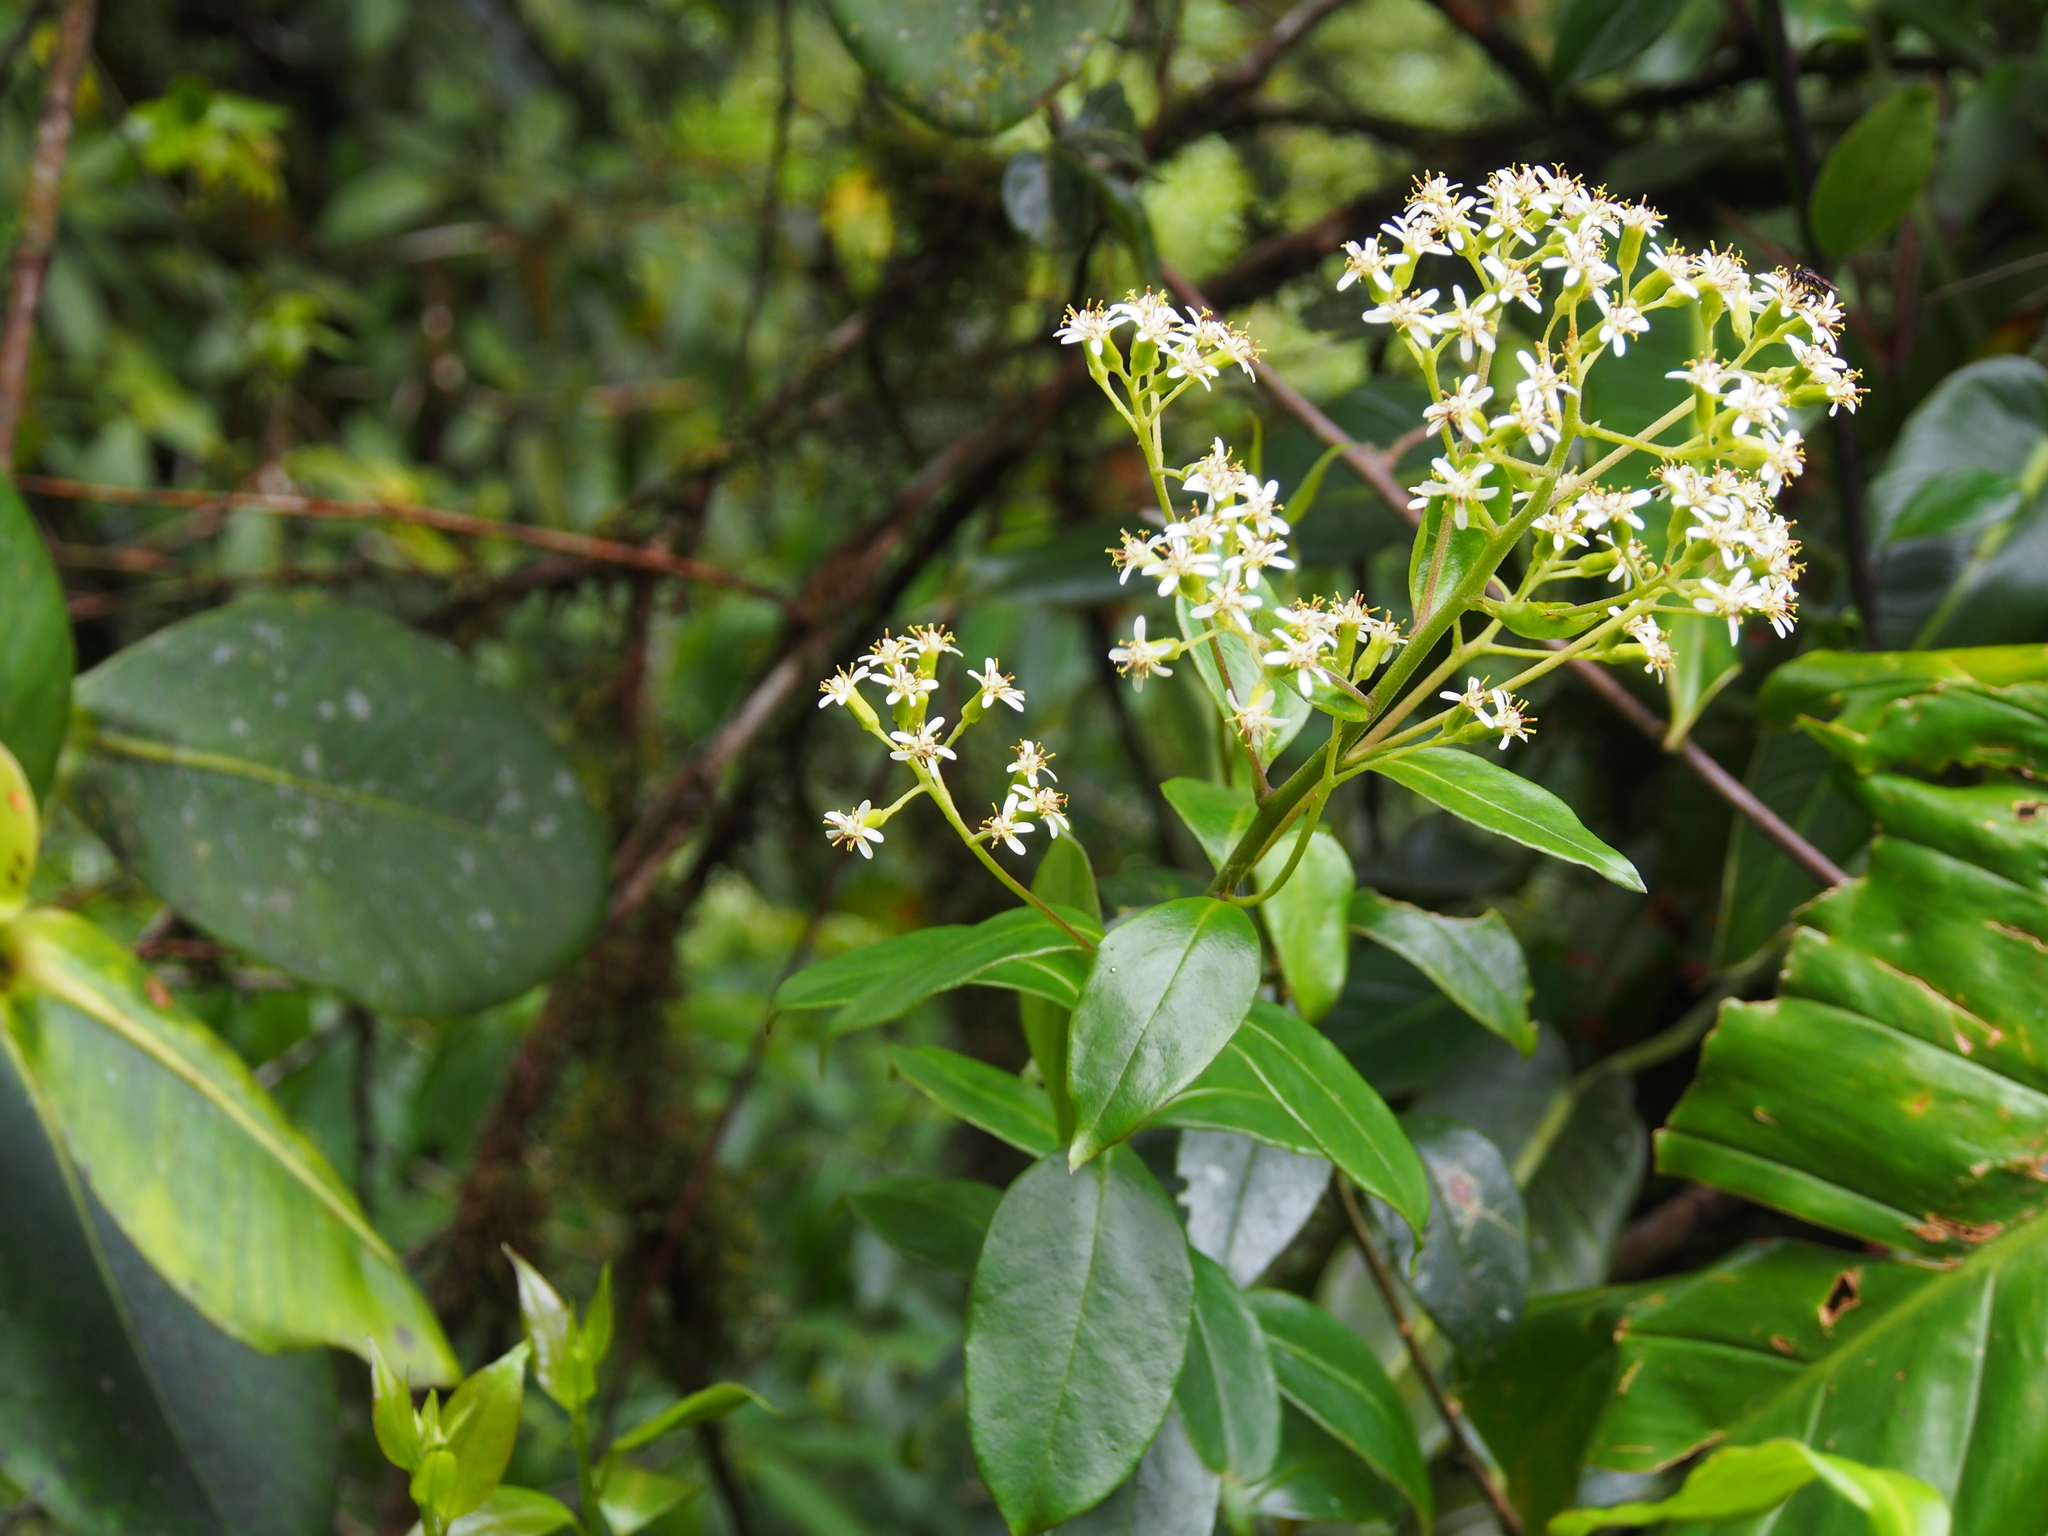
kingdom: Plantae
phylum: Tracheophyta
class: Magnoliopsida
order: Asterales
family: Asteraceae
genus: Trixis
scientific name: Trixis inula
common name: Tropical threefold
